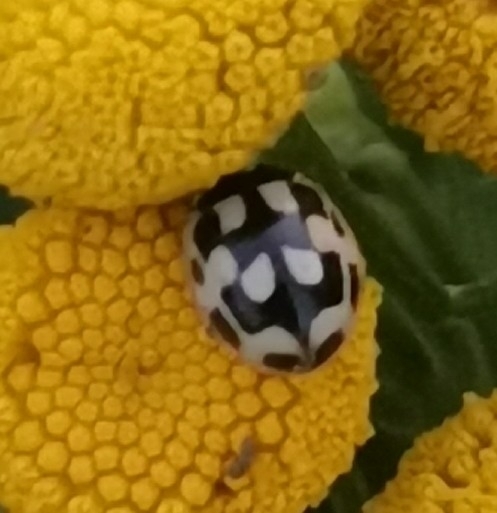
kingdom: Animalia
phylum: Arthropoda
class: Insecta
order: Coleoptera
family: Coccinellidae
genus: Propylaea
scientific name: Propylaea quatuordecimpunctata
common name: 14-spotted ladybird beetle
